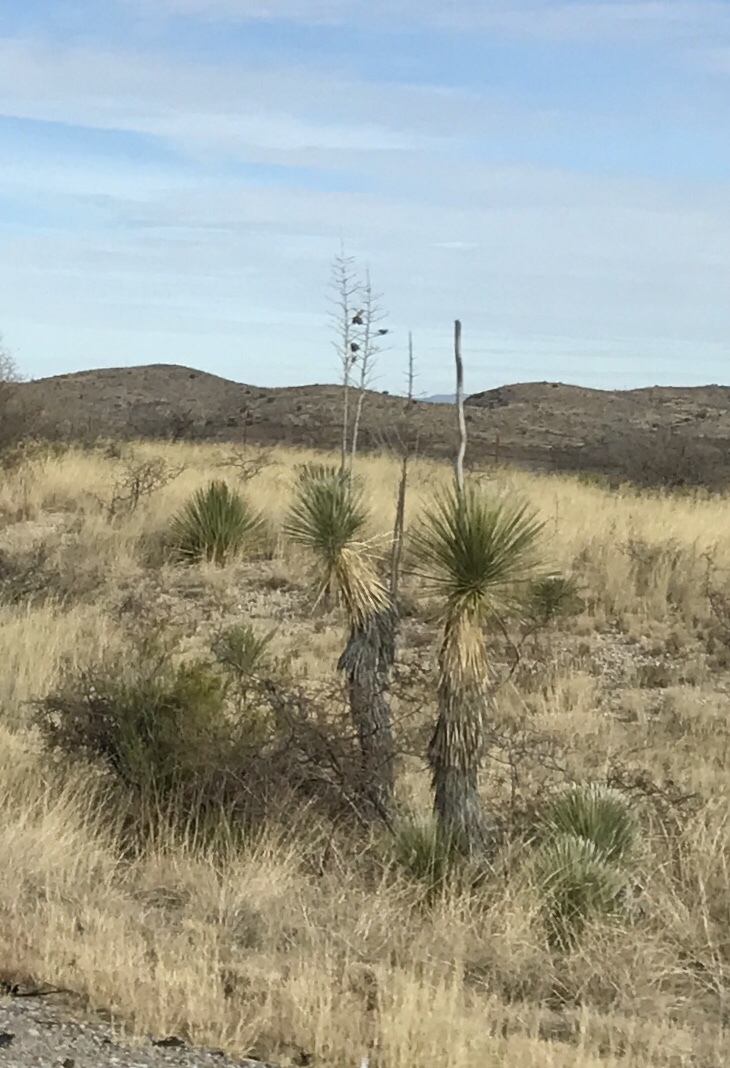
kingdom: Plantae
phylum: Tracheophyta
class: Liliopsida
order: Asparagales
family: Asparagaceae
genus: Yucca
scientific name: Yucca elata
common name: Palmella
